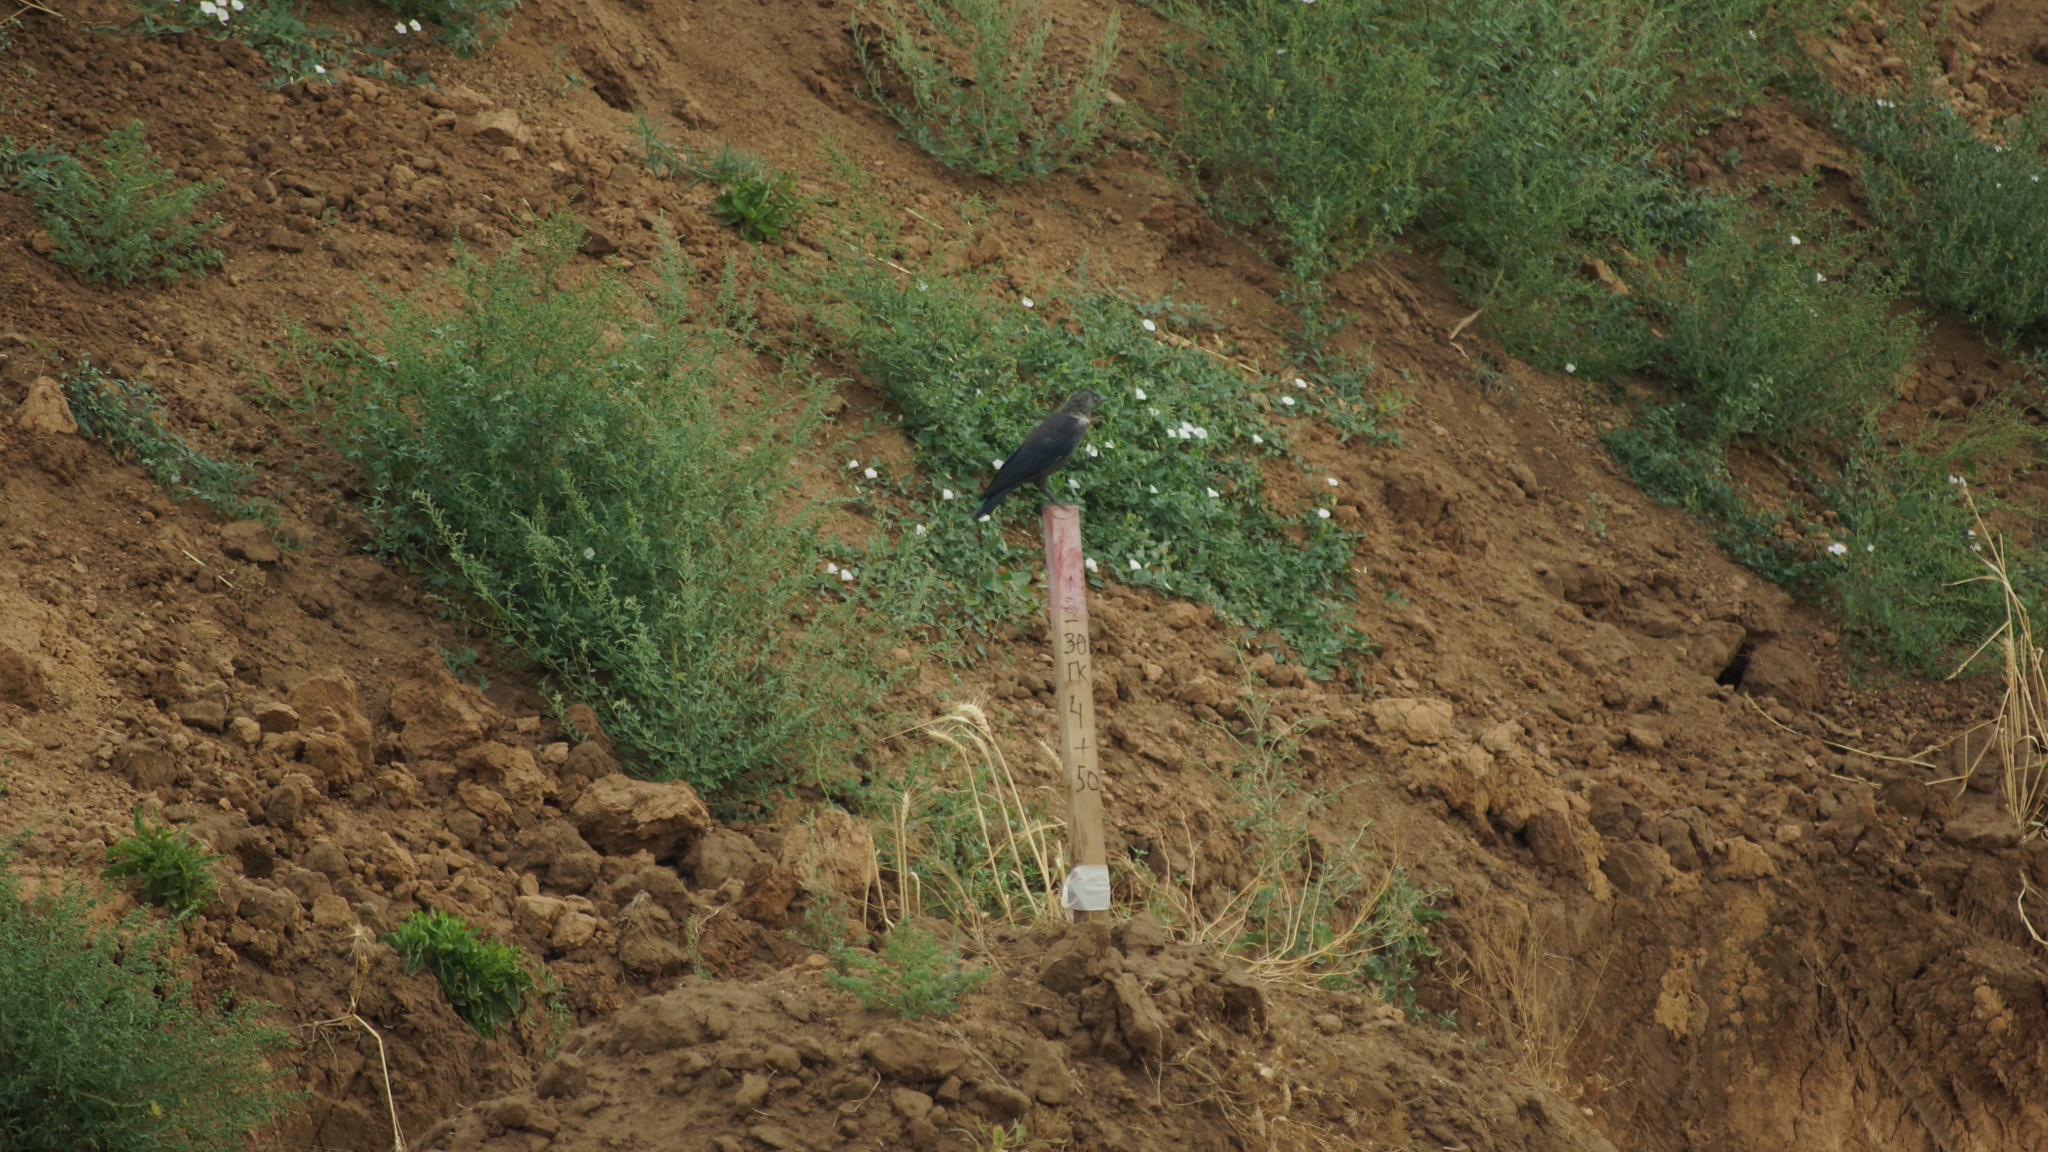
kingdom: Animalia
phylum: Chordata
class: Aves
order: Passeriformes
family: Corvidae
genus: Coloeus
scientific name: Coloeus monedula
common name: Western jackdaw
